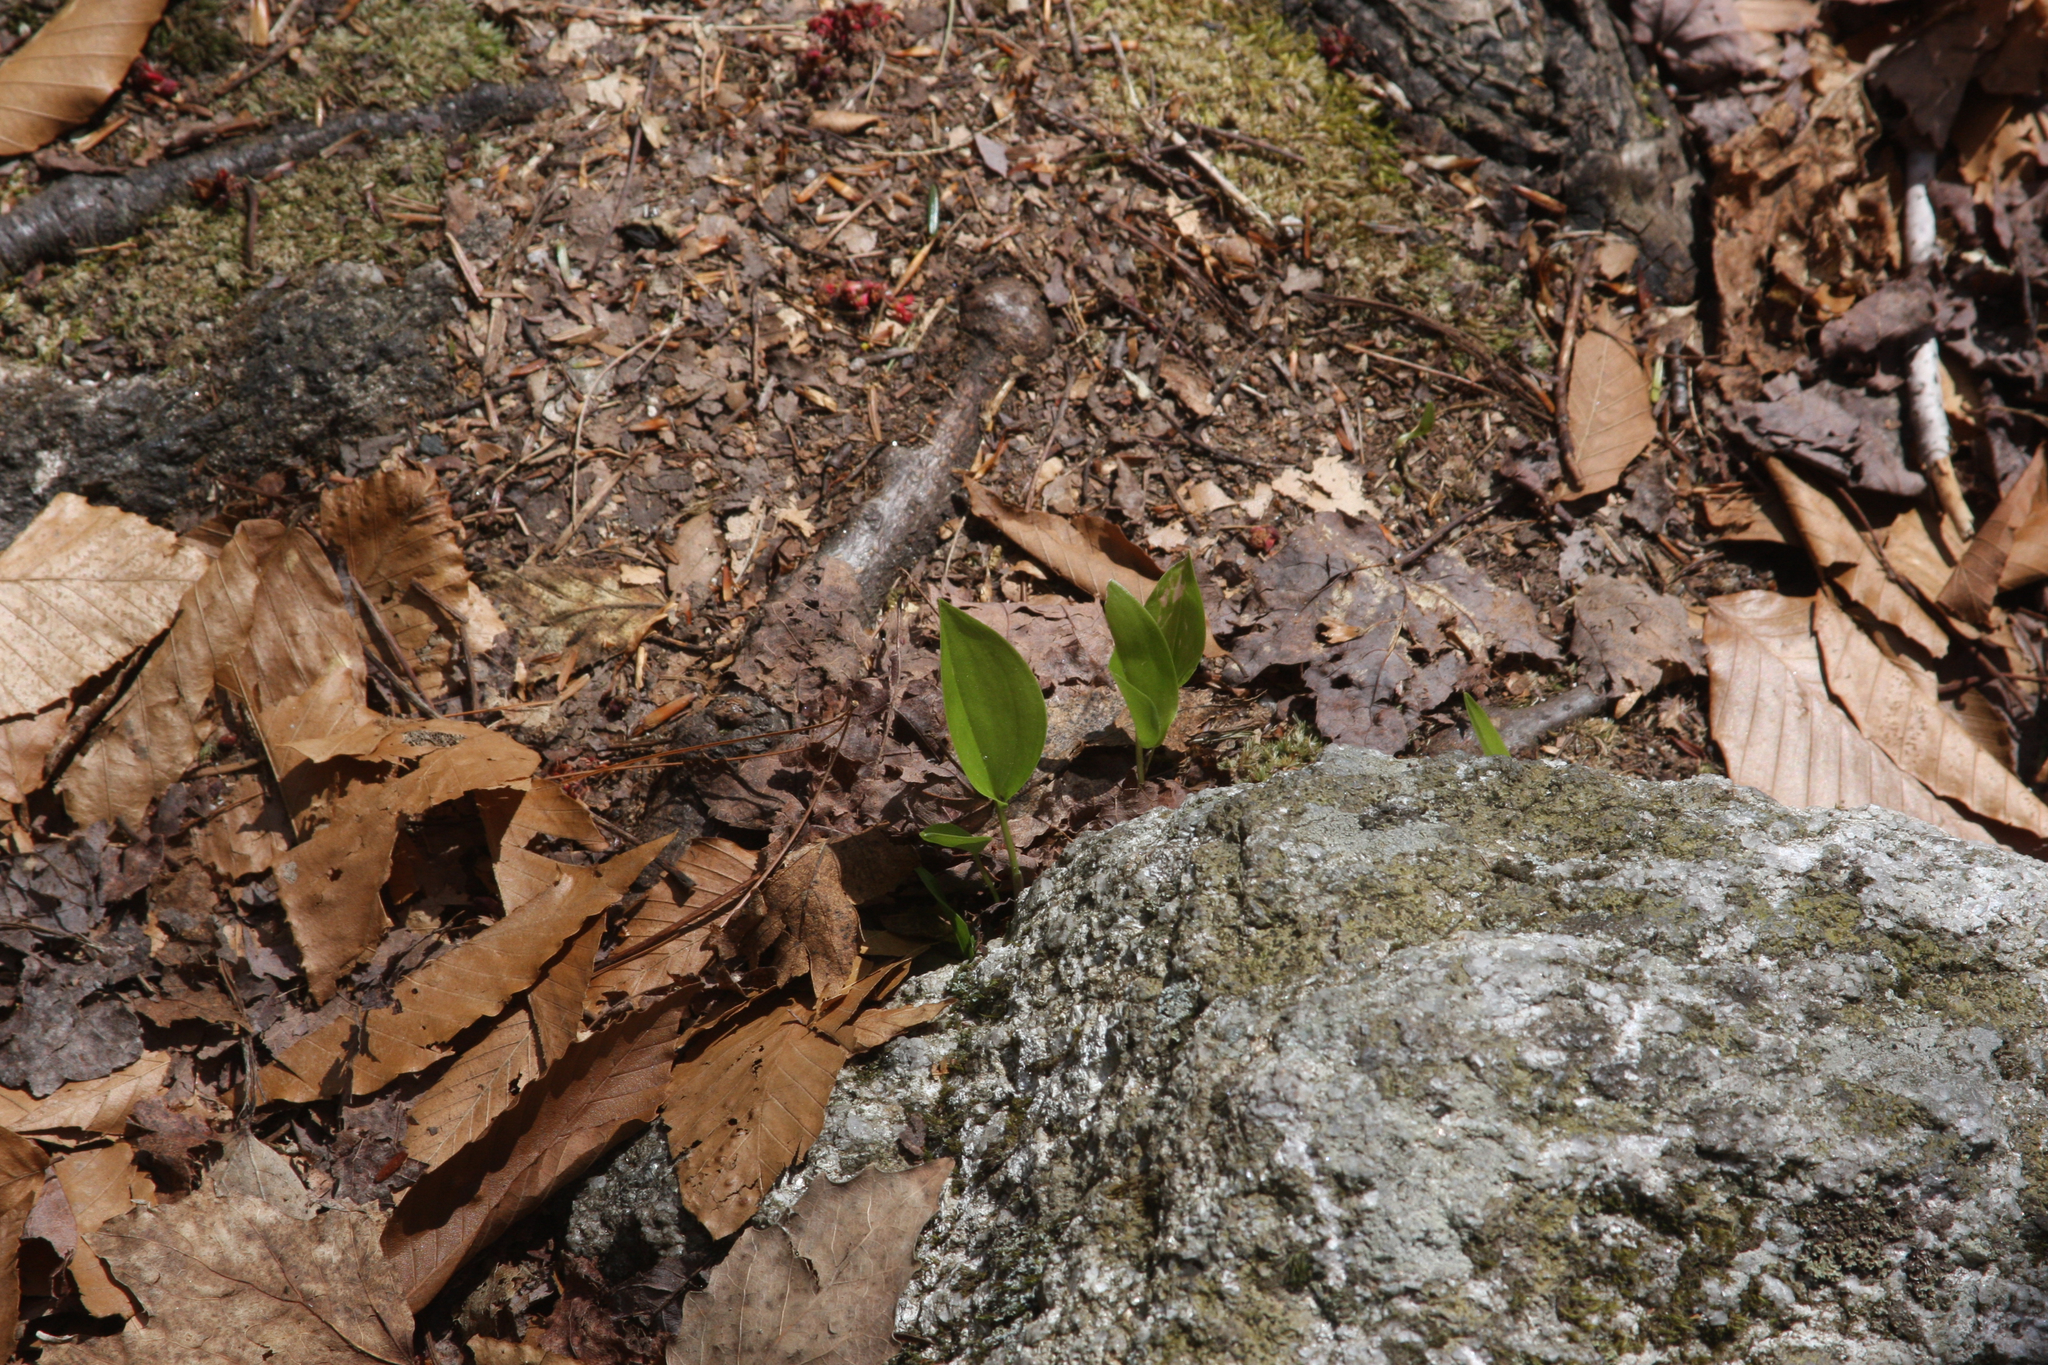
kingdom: Plantae
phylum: Tracheophyta
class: Liliopsida
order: Asparagales
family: Asparagaceae
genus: Maianthemum
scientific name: Maianthemum canadense
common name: False lily-of-the-valley
